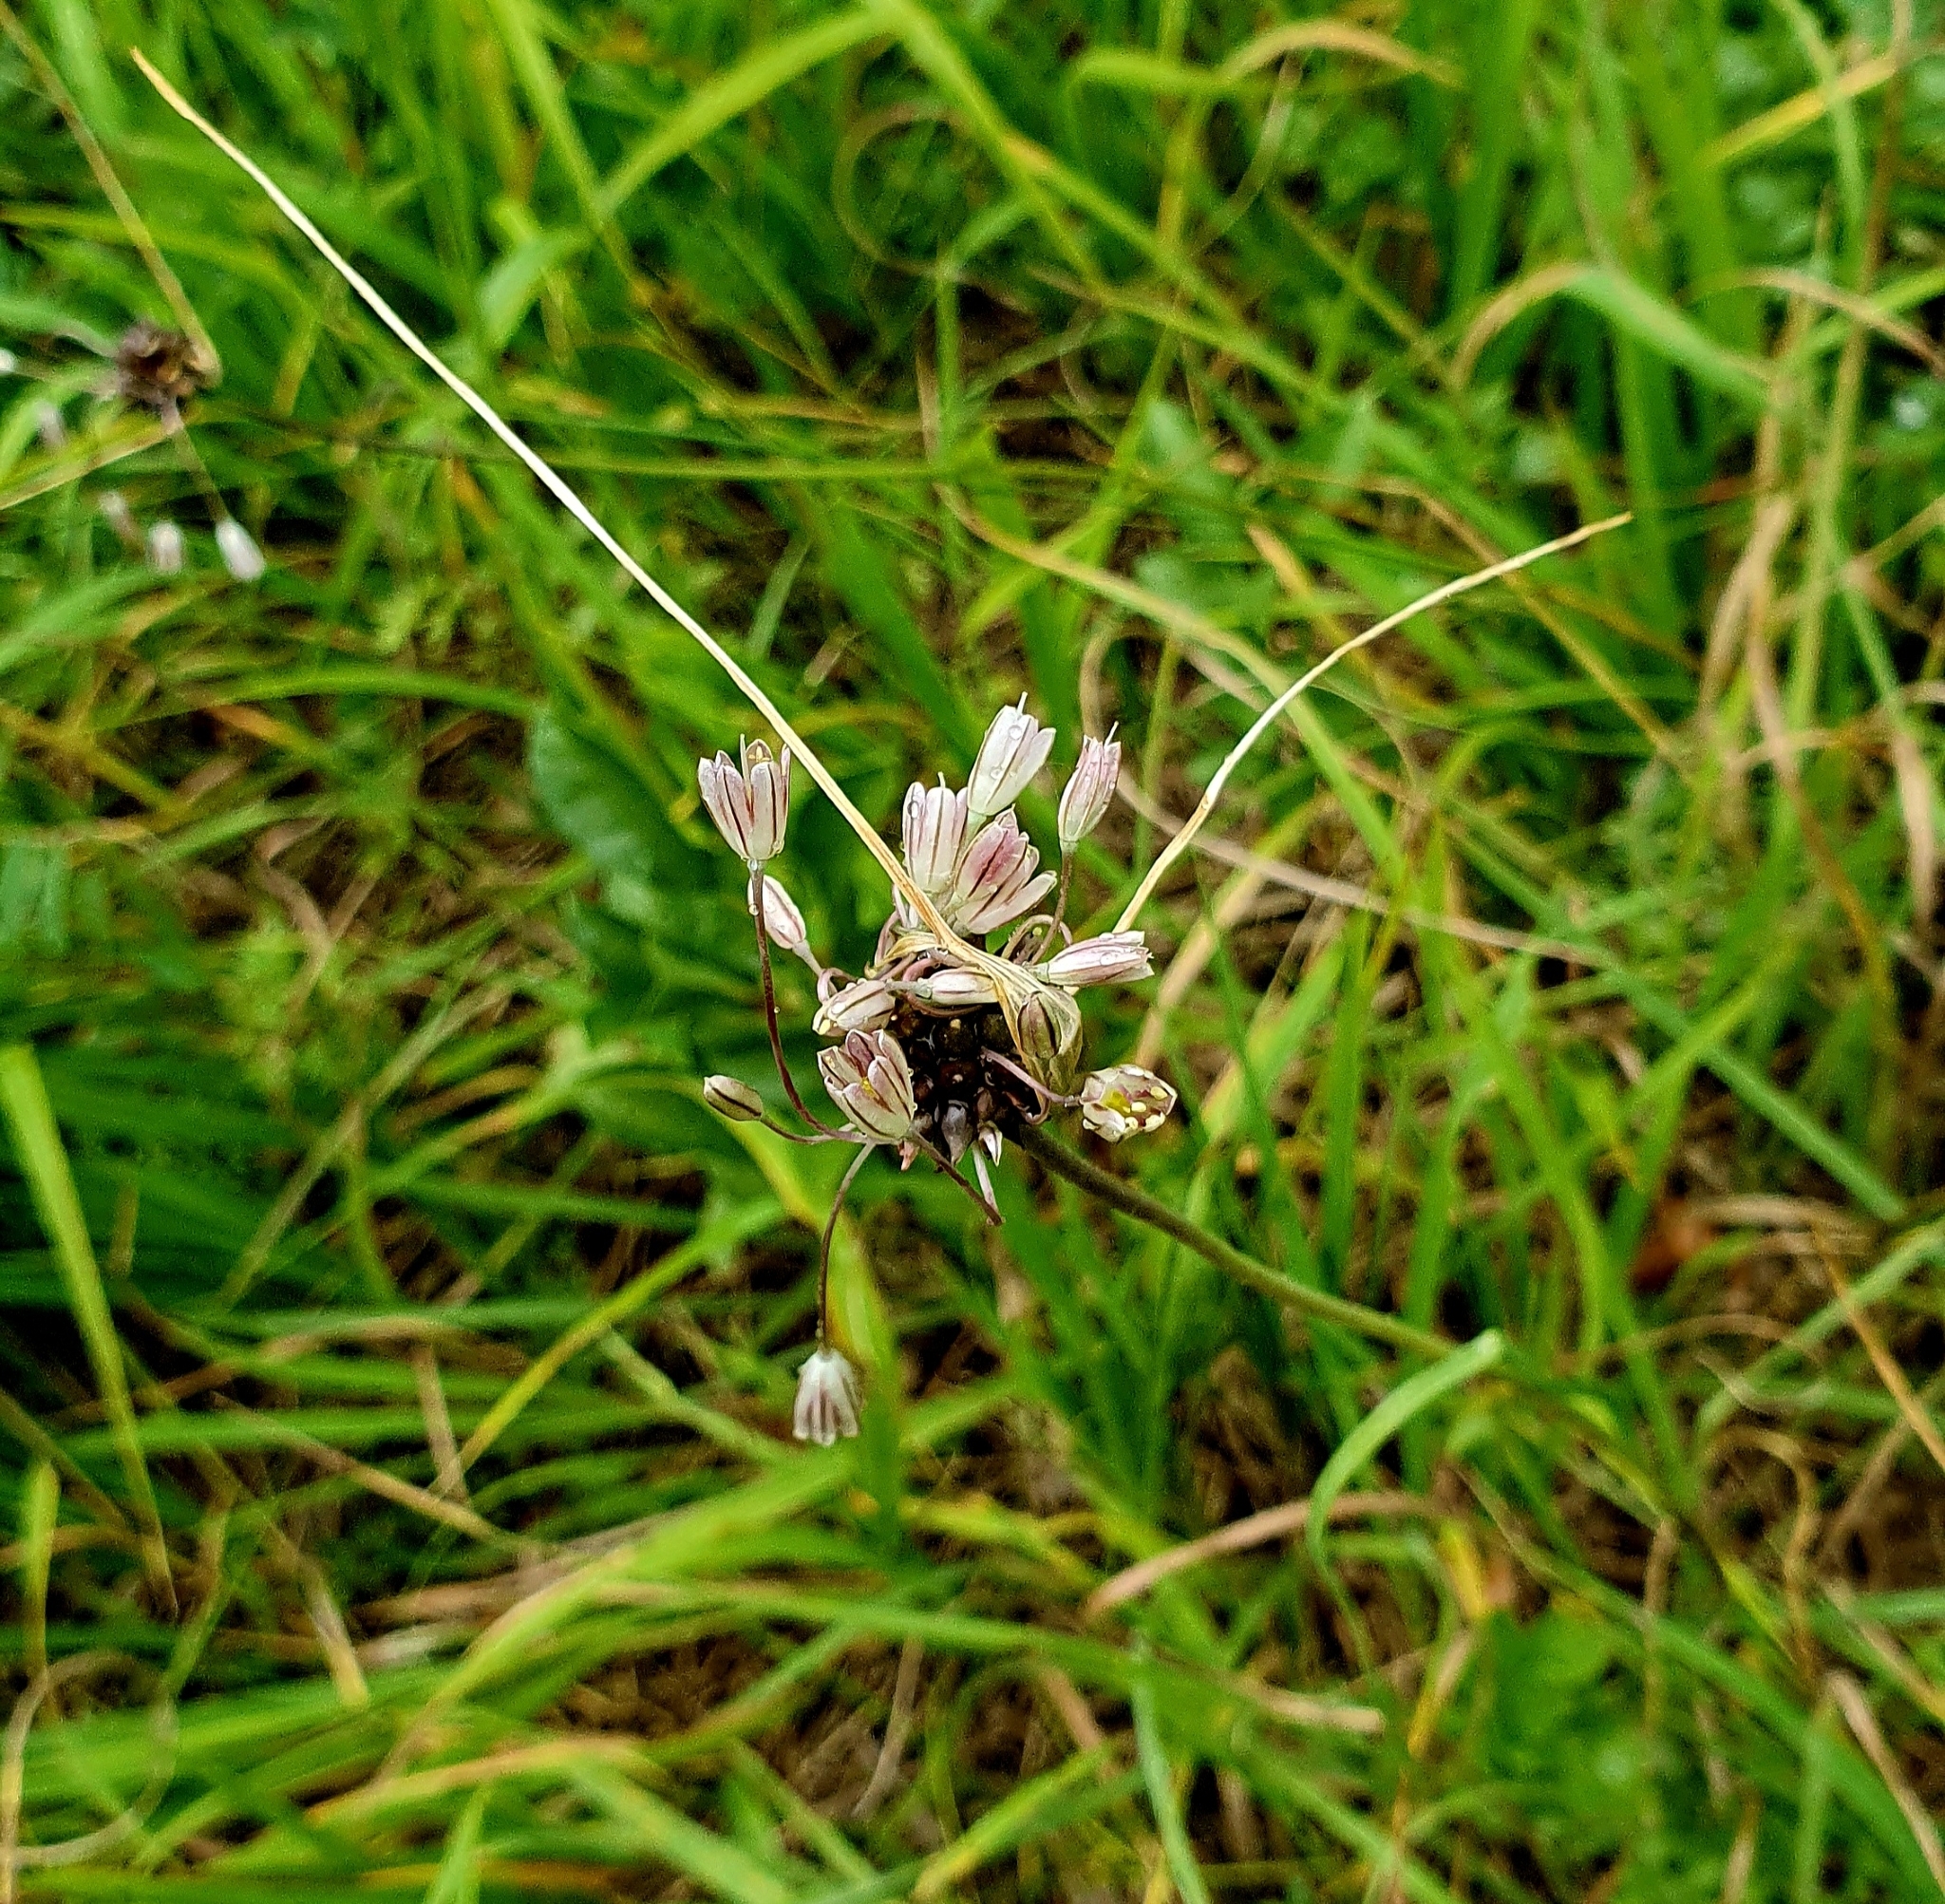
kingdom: Plantae
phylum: Tracheophyta
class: Liliopsida
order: Asparagales
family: Amaryllidaceae
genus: Allium
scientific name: Allium oleraceum
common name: Field garlic
